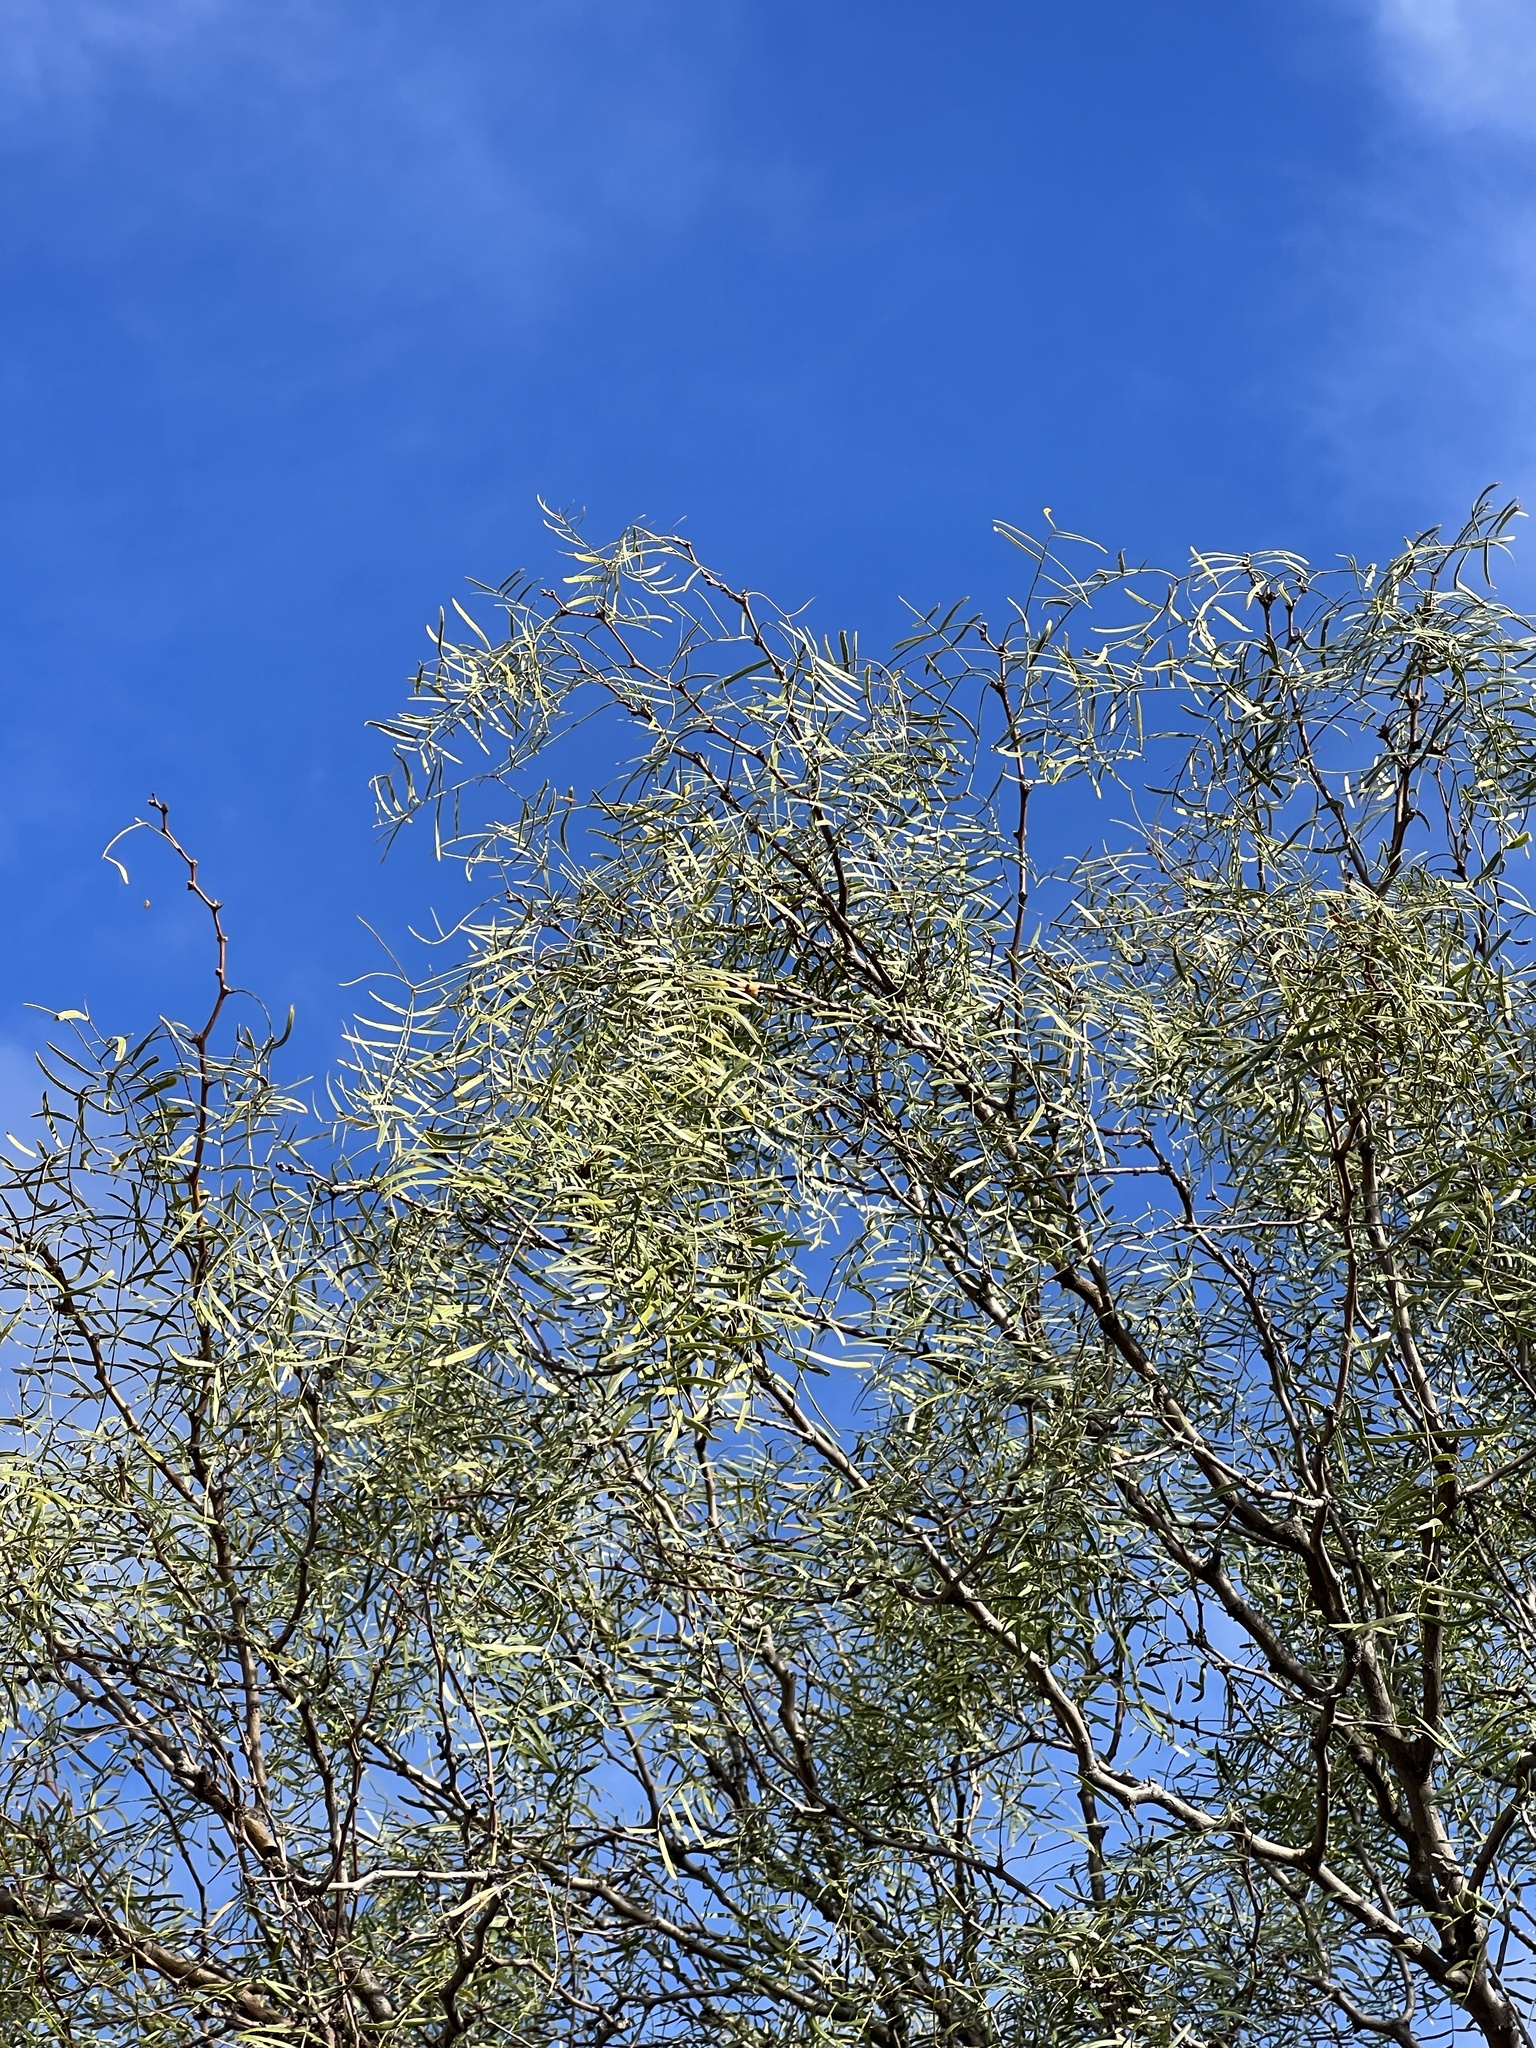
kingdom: Plantae
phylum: Tracheophyta
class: Magnoliopsida
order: Fabales
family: Fabaceae
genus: Prosopis
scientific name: Prosopis glandulosa
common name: Honey mesquite
